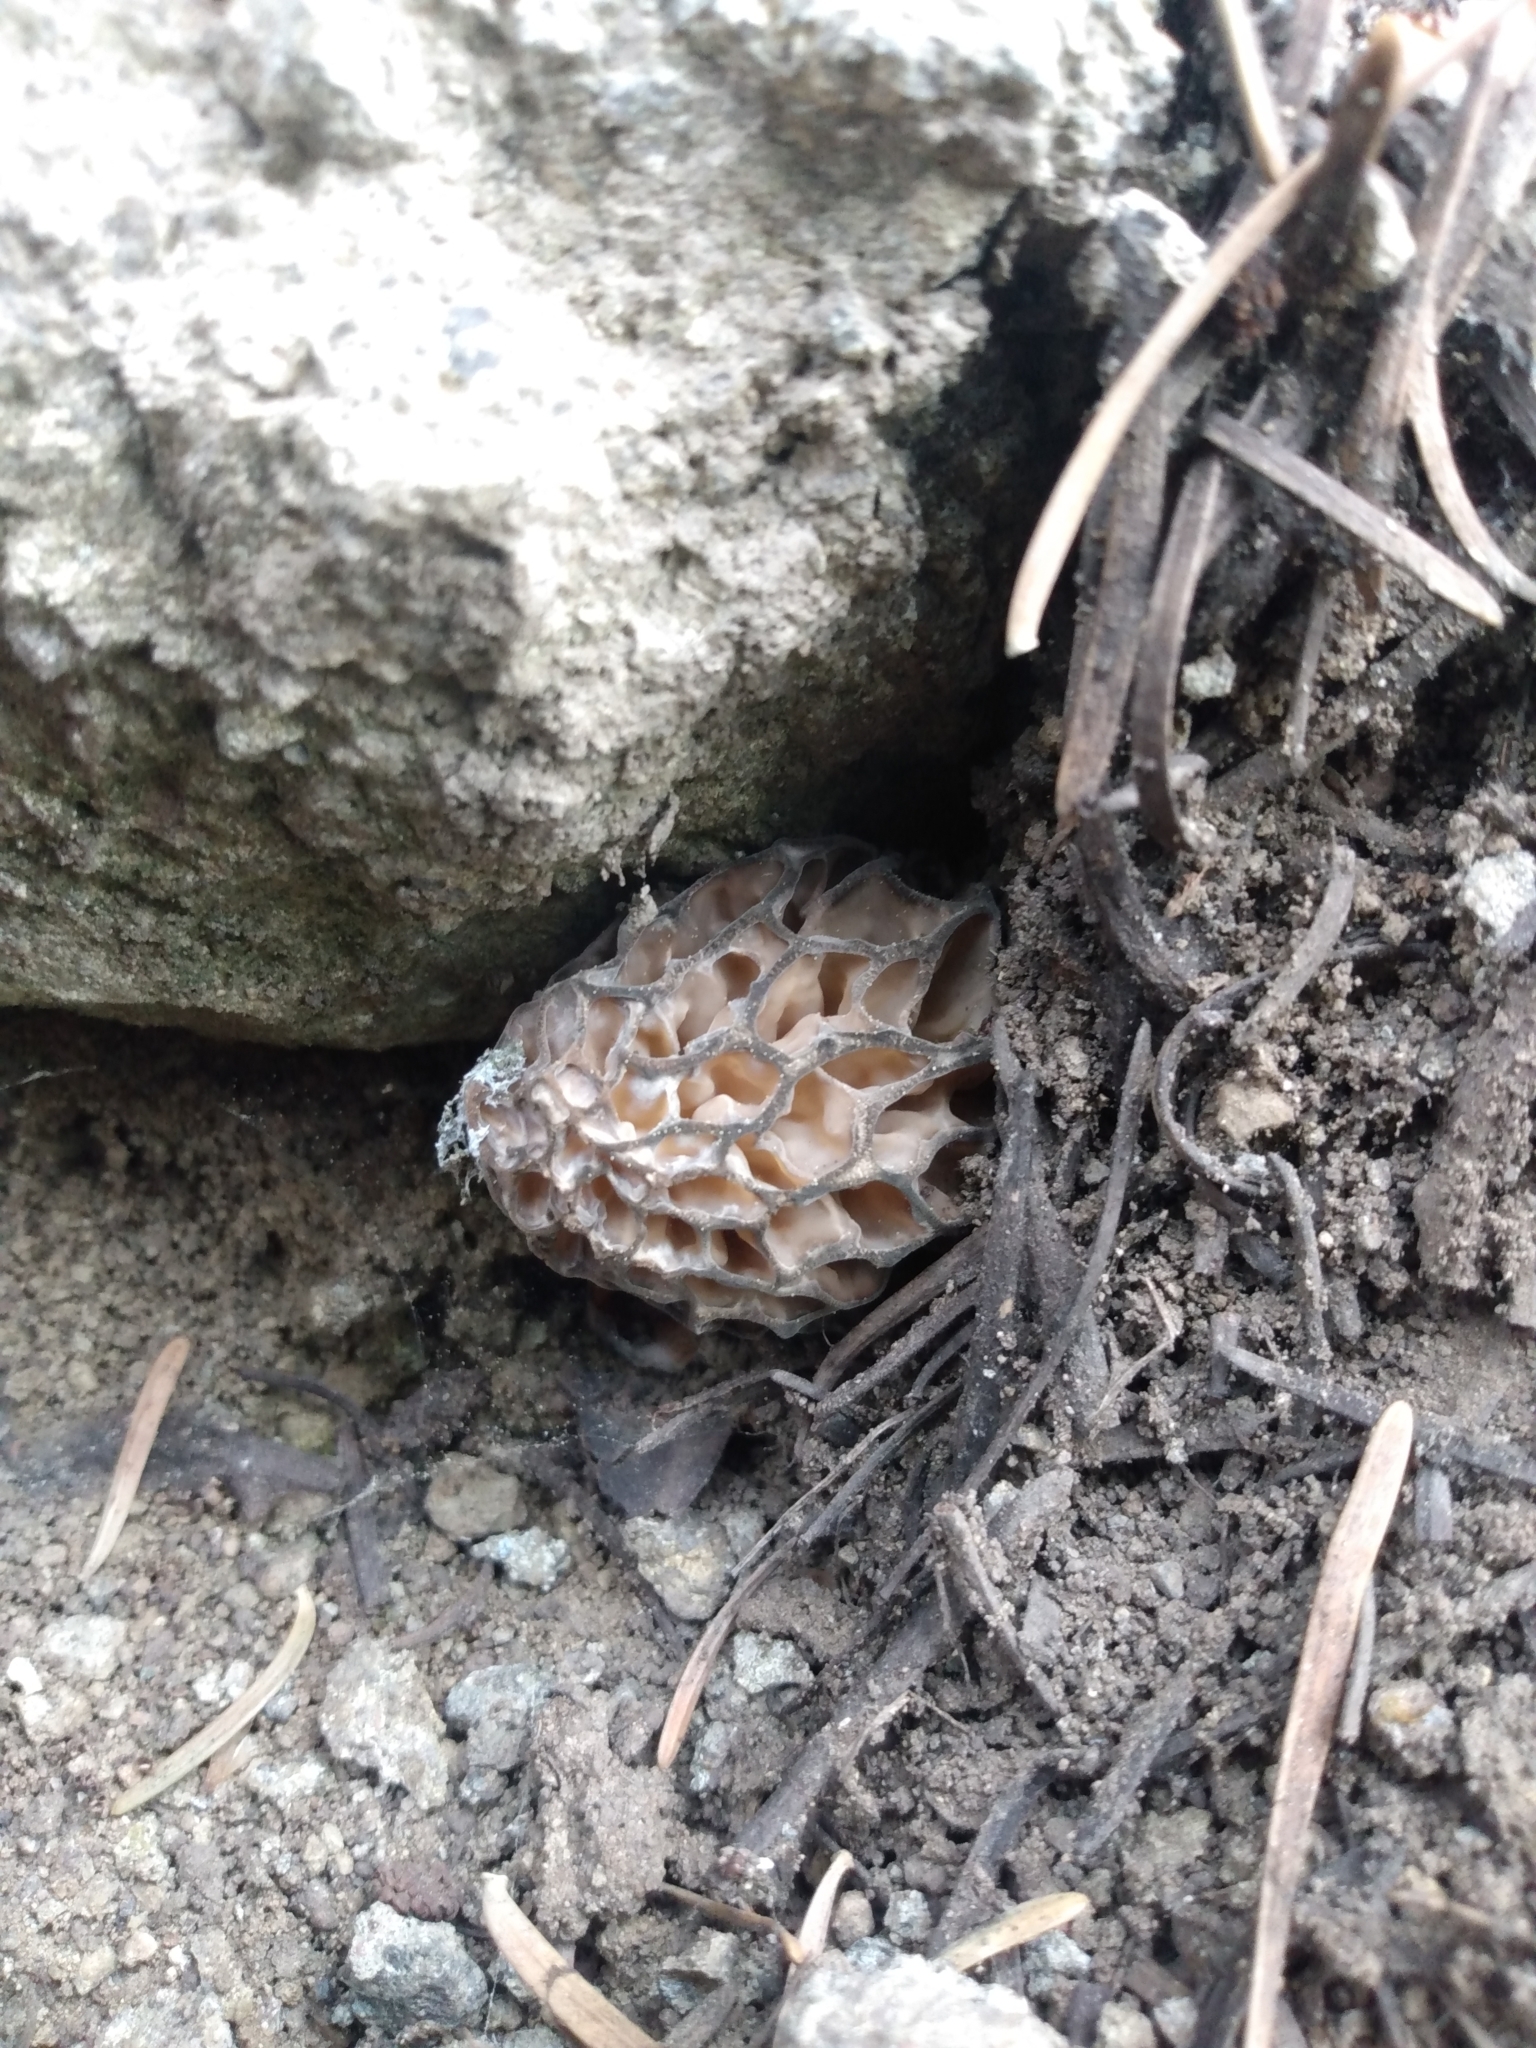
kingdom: Fungi
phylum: Ascomycota
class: Pezizomycetes
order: Pezizales
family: Morchellaceae
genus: Morchella
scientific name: Morchella americana
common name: White morel
